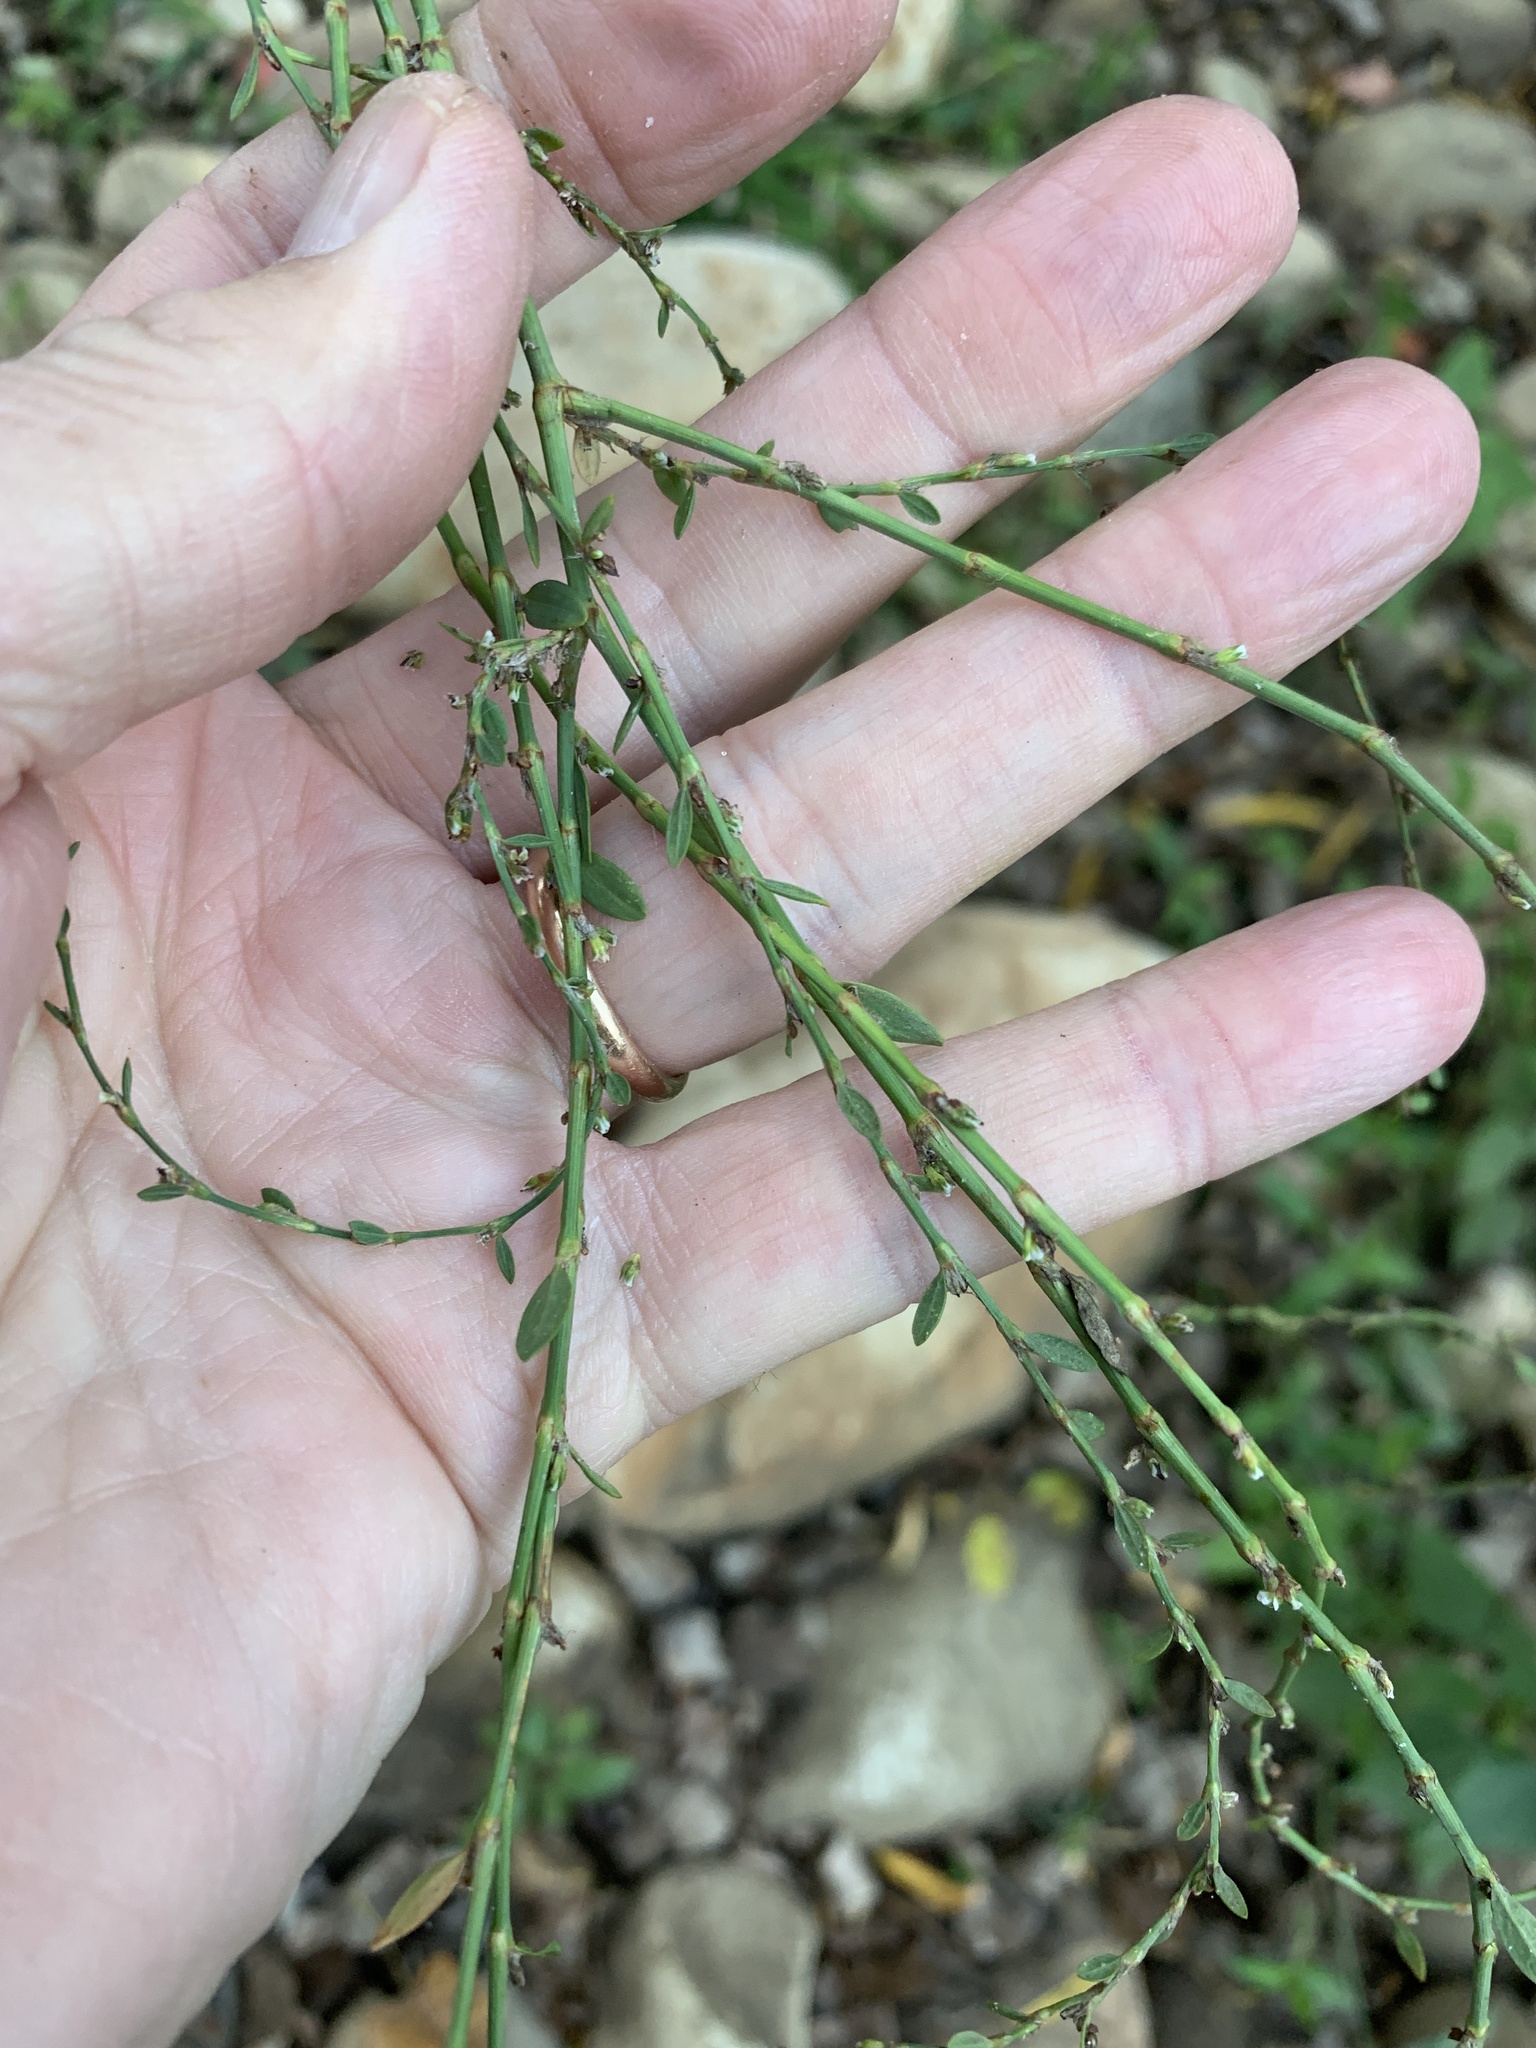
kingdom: Plantae
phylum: Tracheophyta
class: Magnoliopsida
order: Caryophyllales
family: Polygonaceae
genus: Polygonum
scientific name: Polygonum aviculare
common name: Prostrate knotweed
